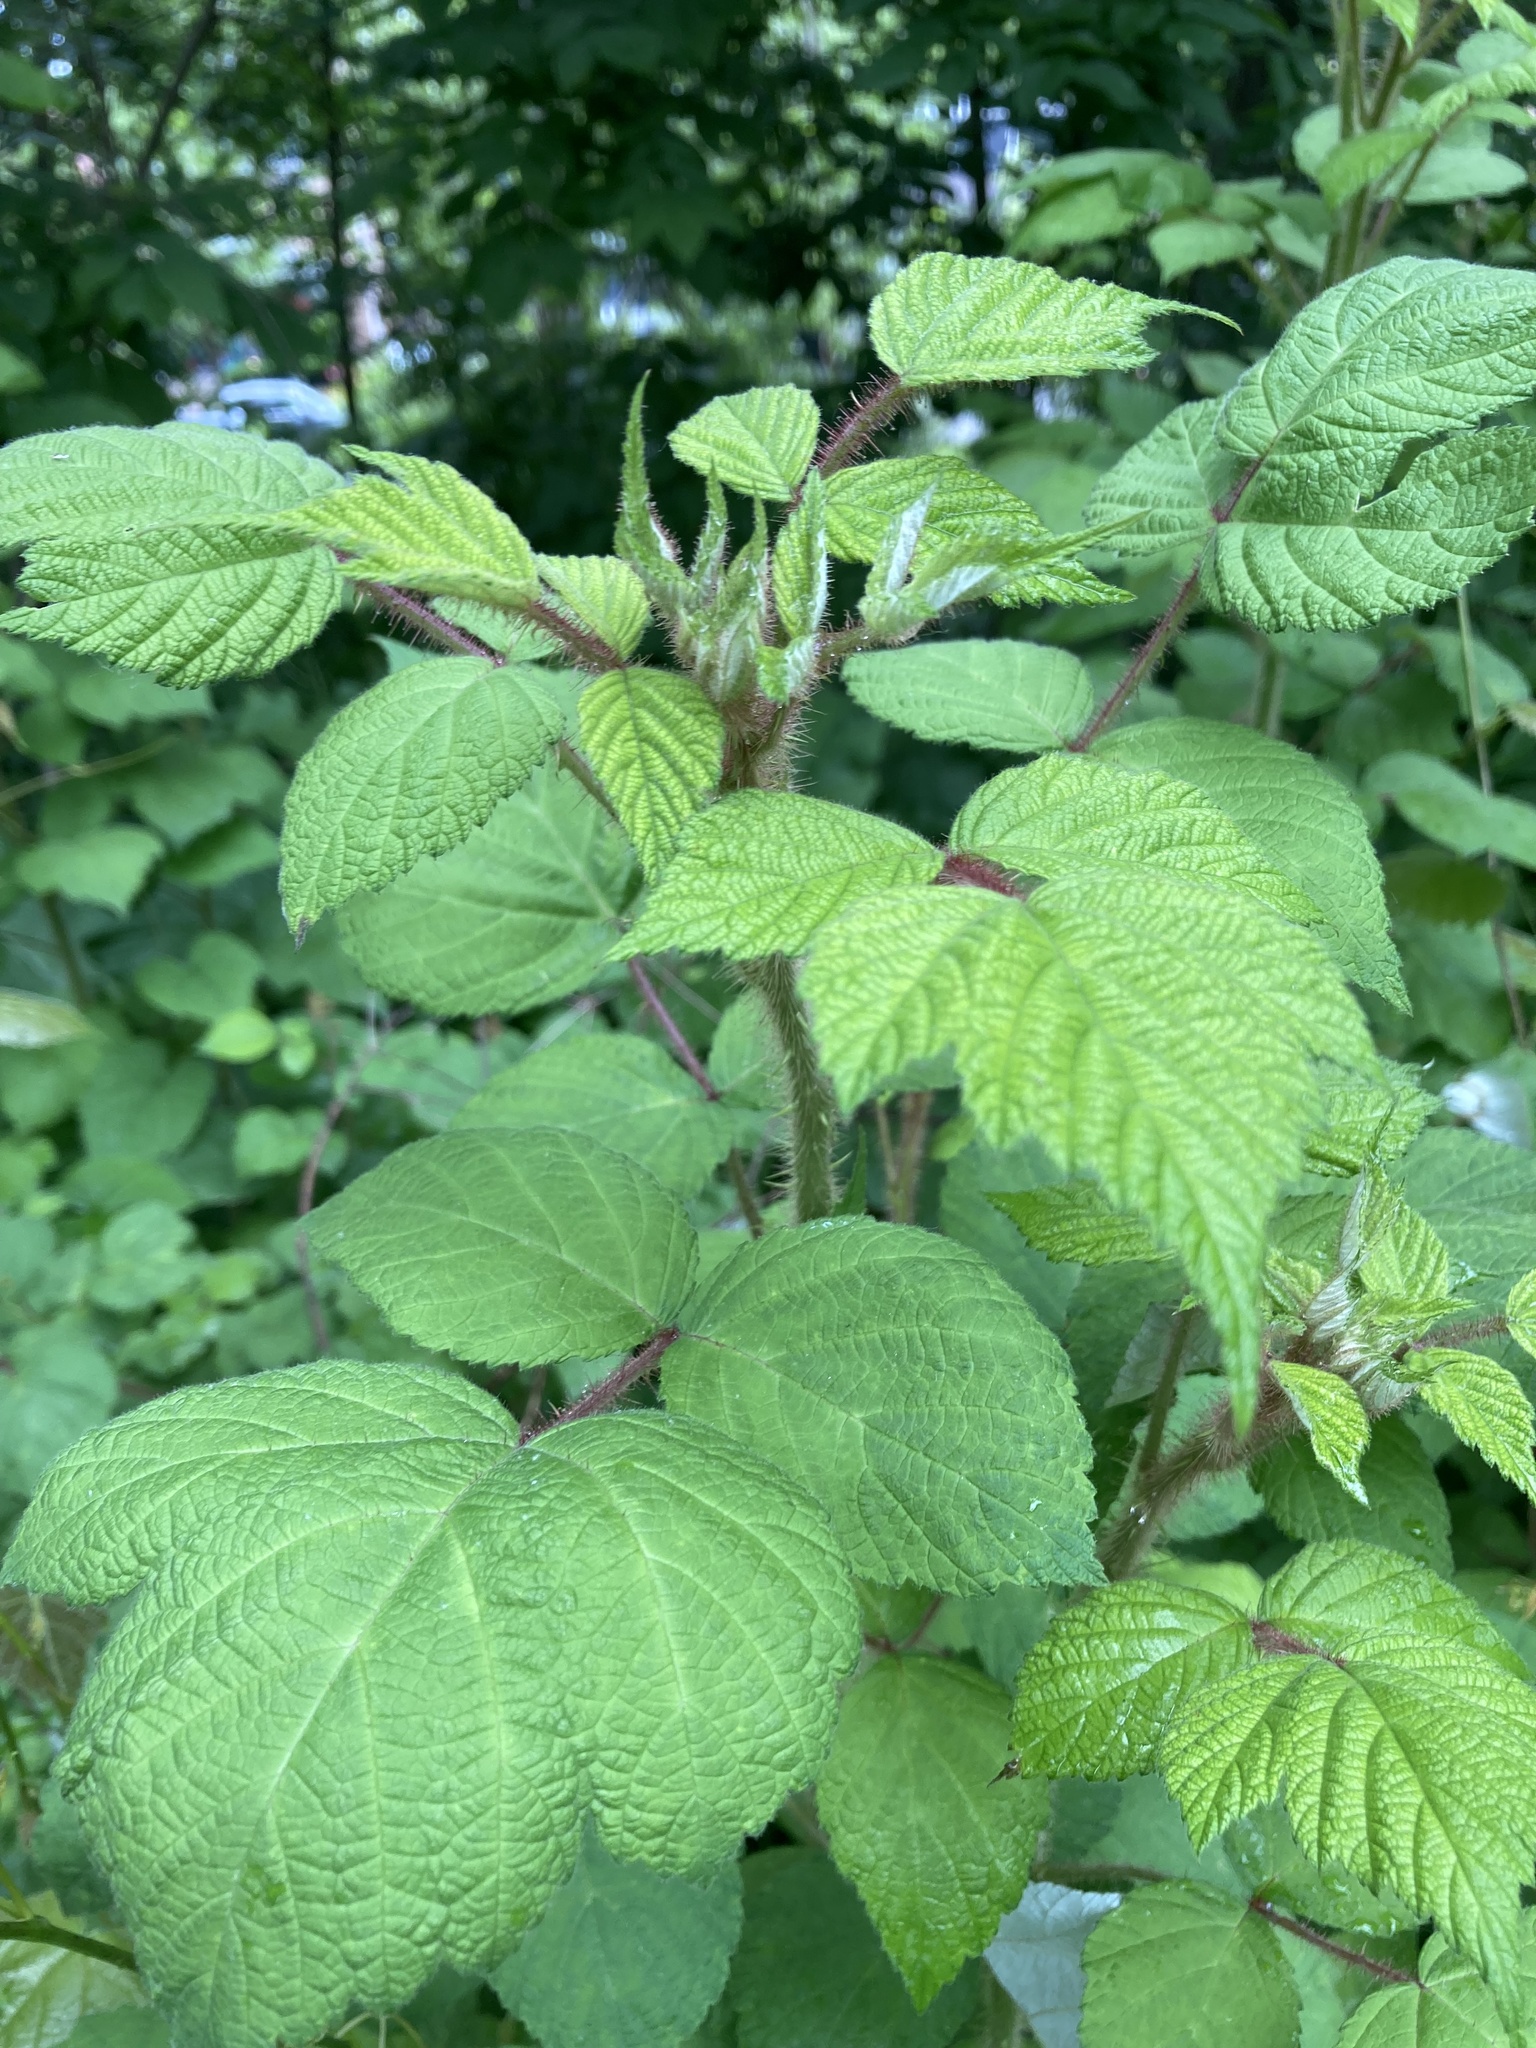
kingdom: Plantae
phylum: Tracheophyta
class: Magnoliopsida
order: Rosales
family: Rosaceae
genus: Rubus
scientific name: Rubus phoenicolasius
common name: Japanese wineberry
